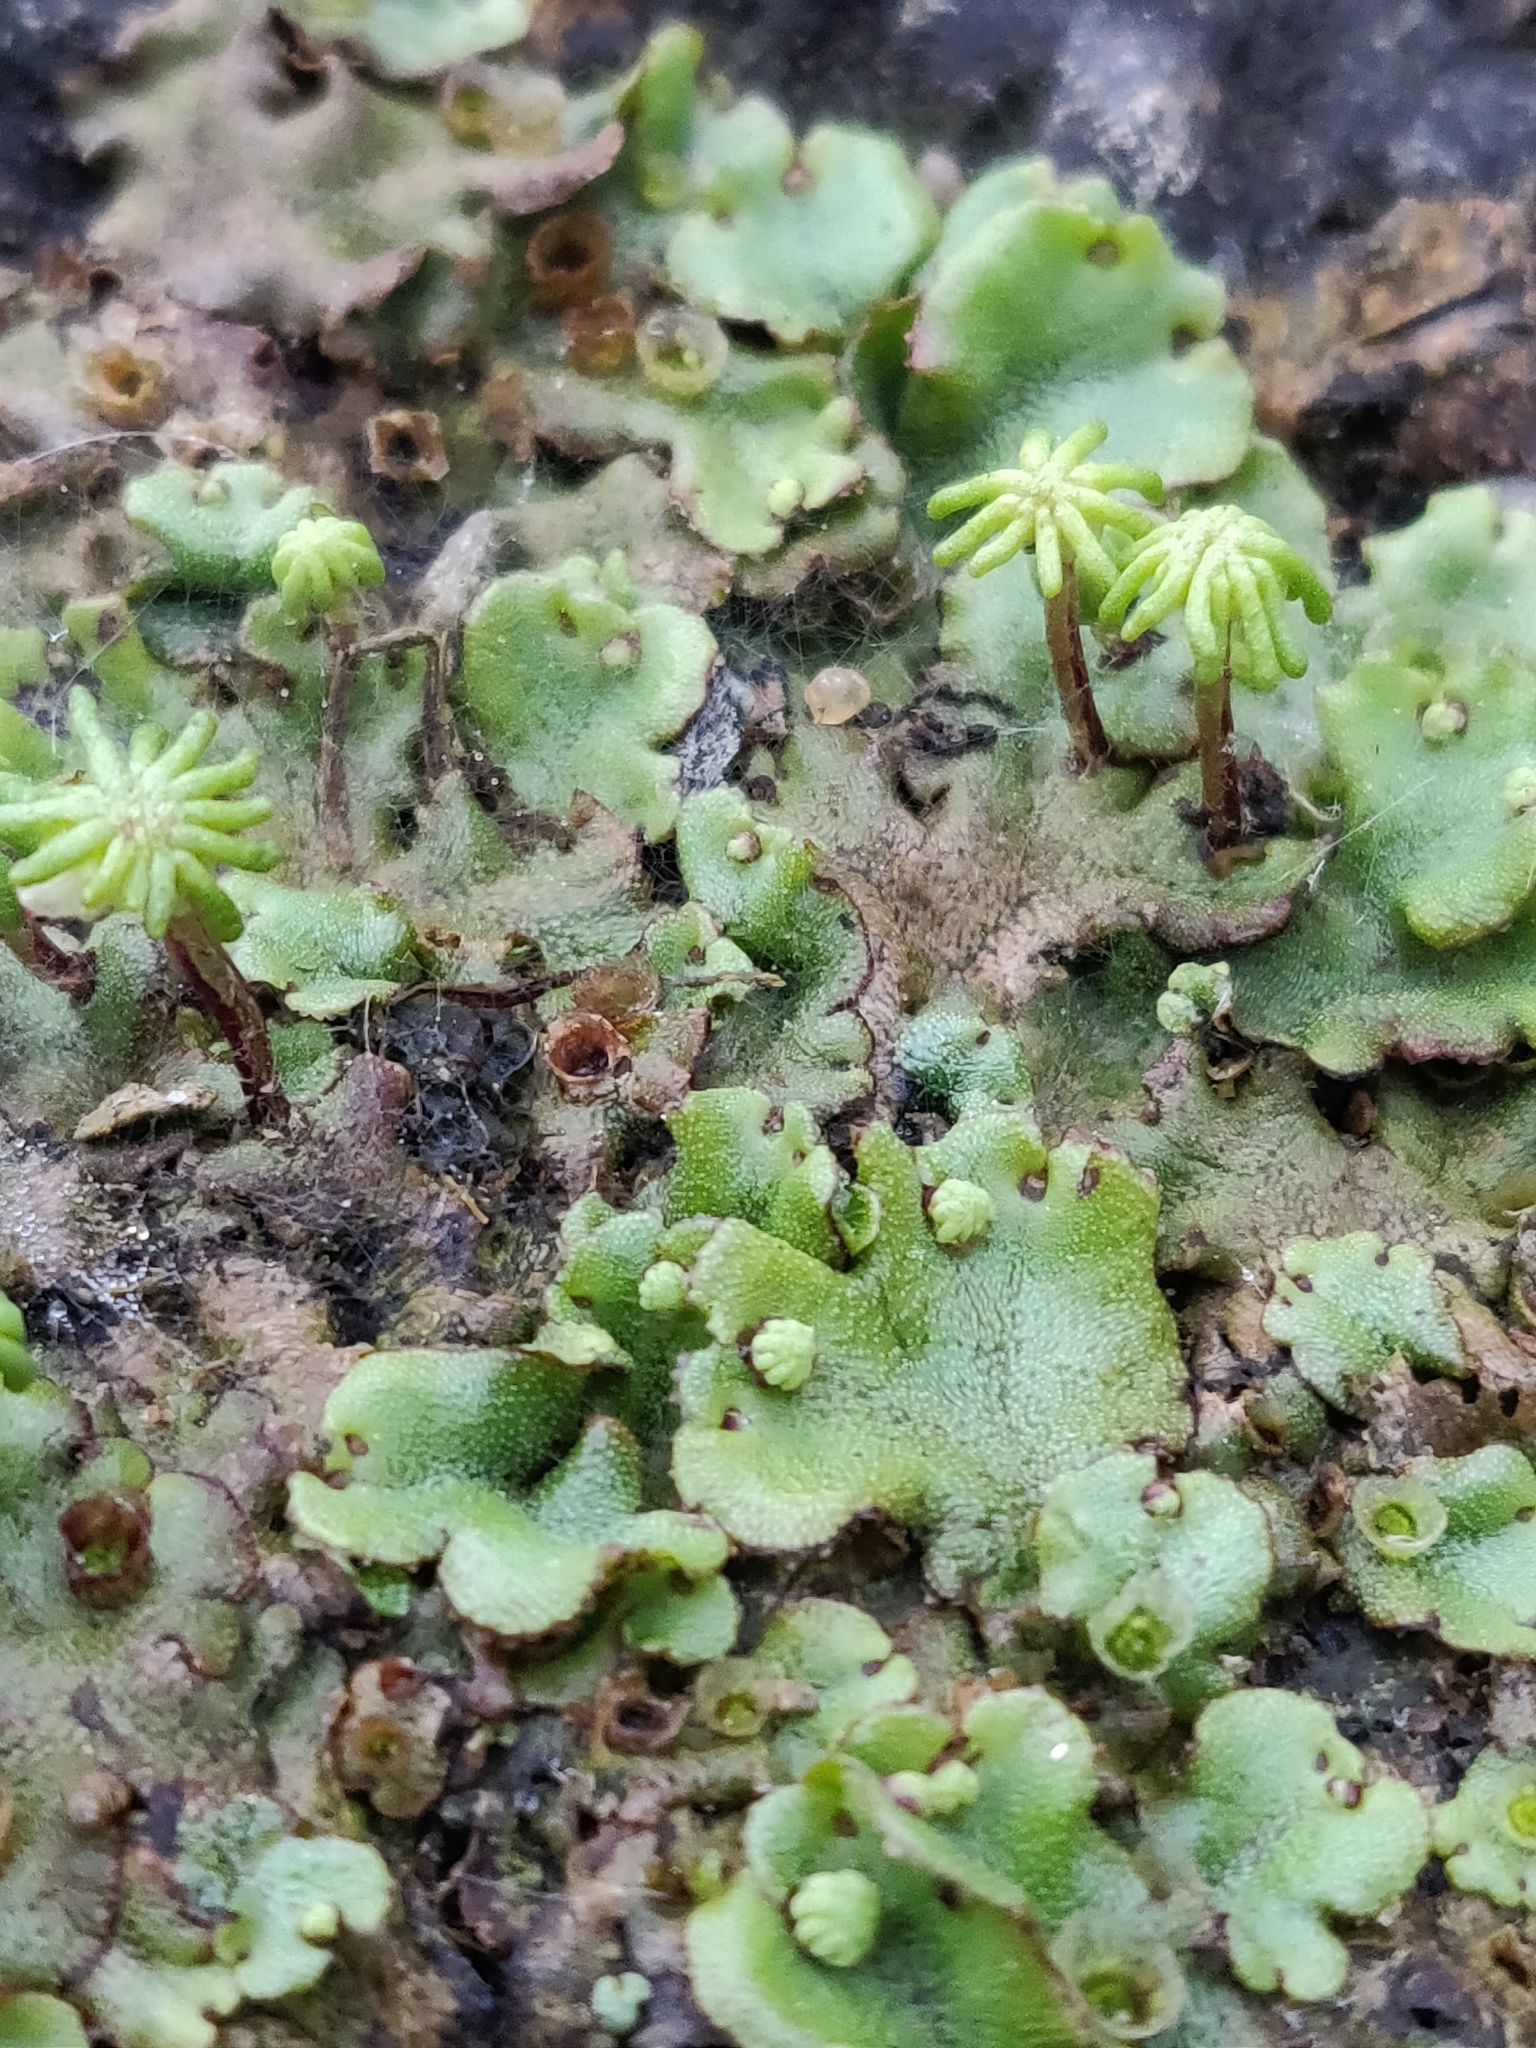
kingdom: Plantae
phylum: Marchantiophyta
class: Marchantiopsida
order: Marchantiales
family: Marchantiaceae
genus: Marchantia
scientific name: Marchantia polymorpha
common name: Common liverwort
